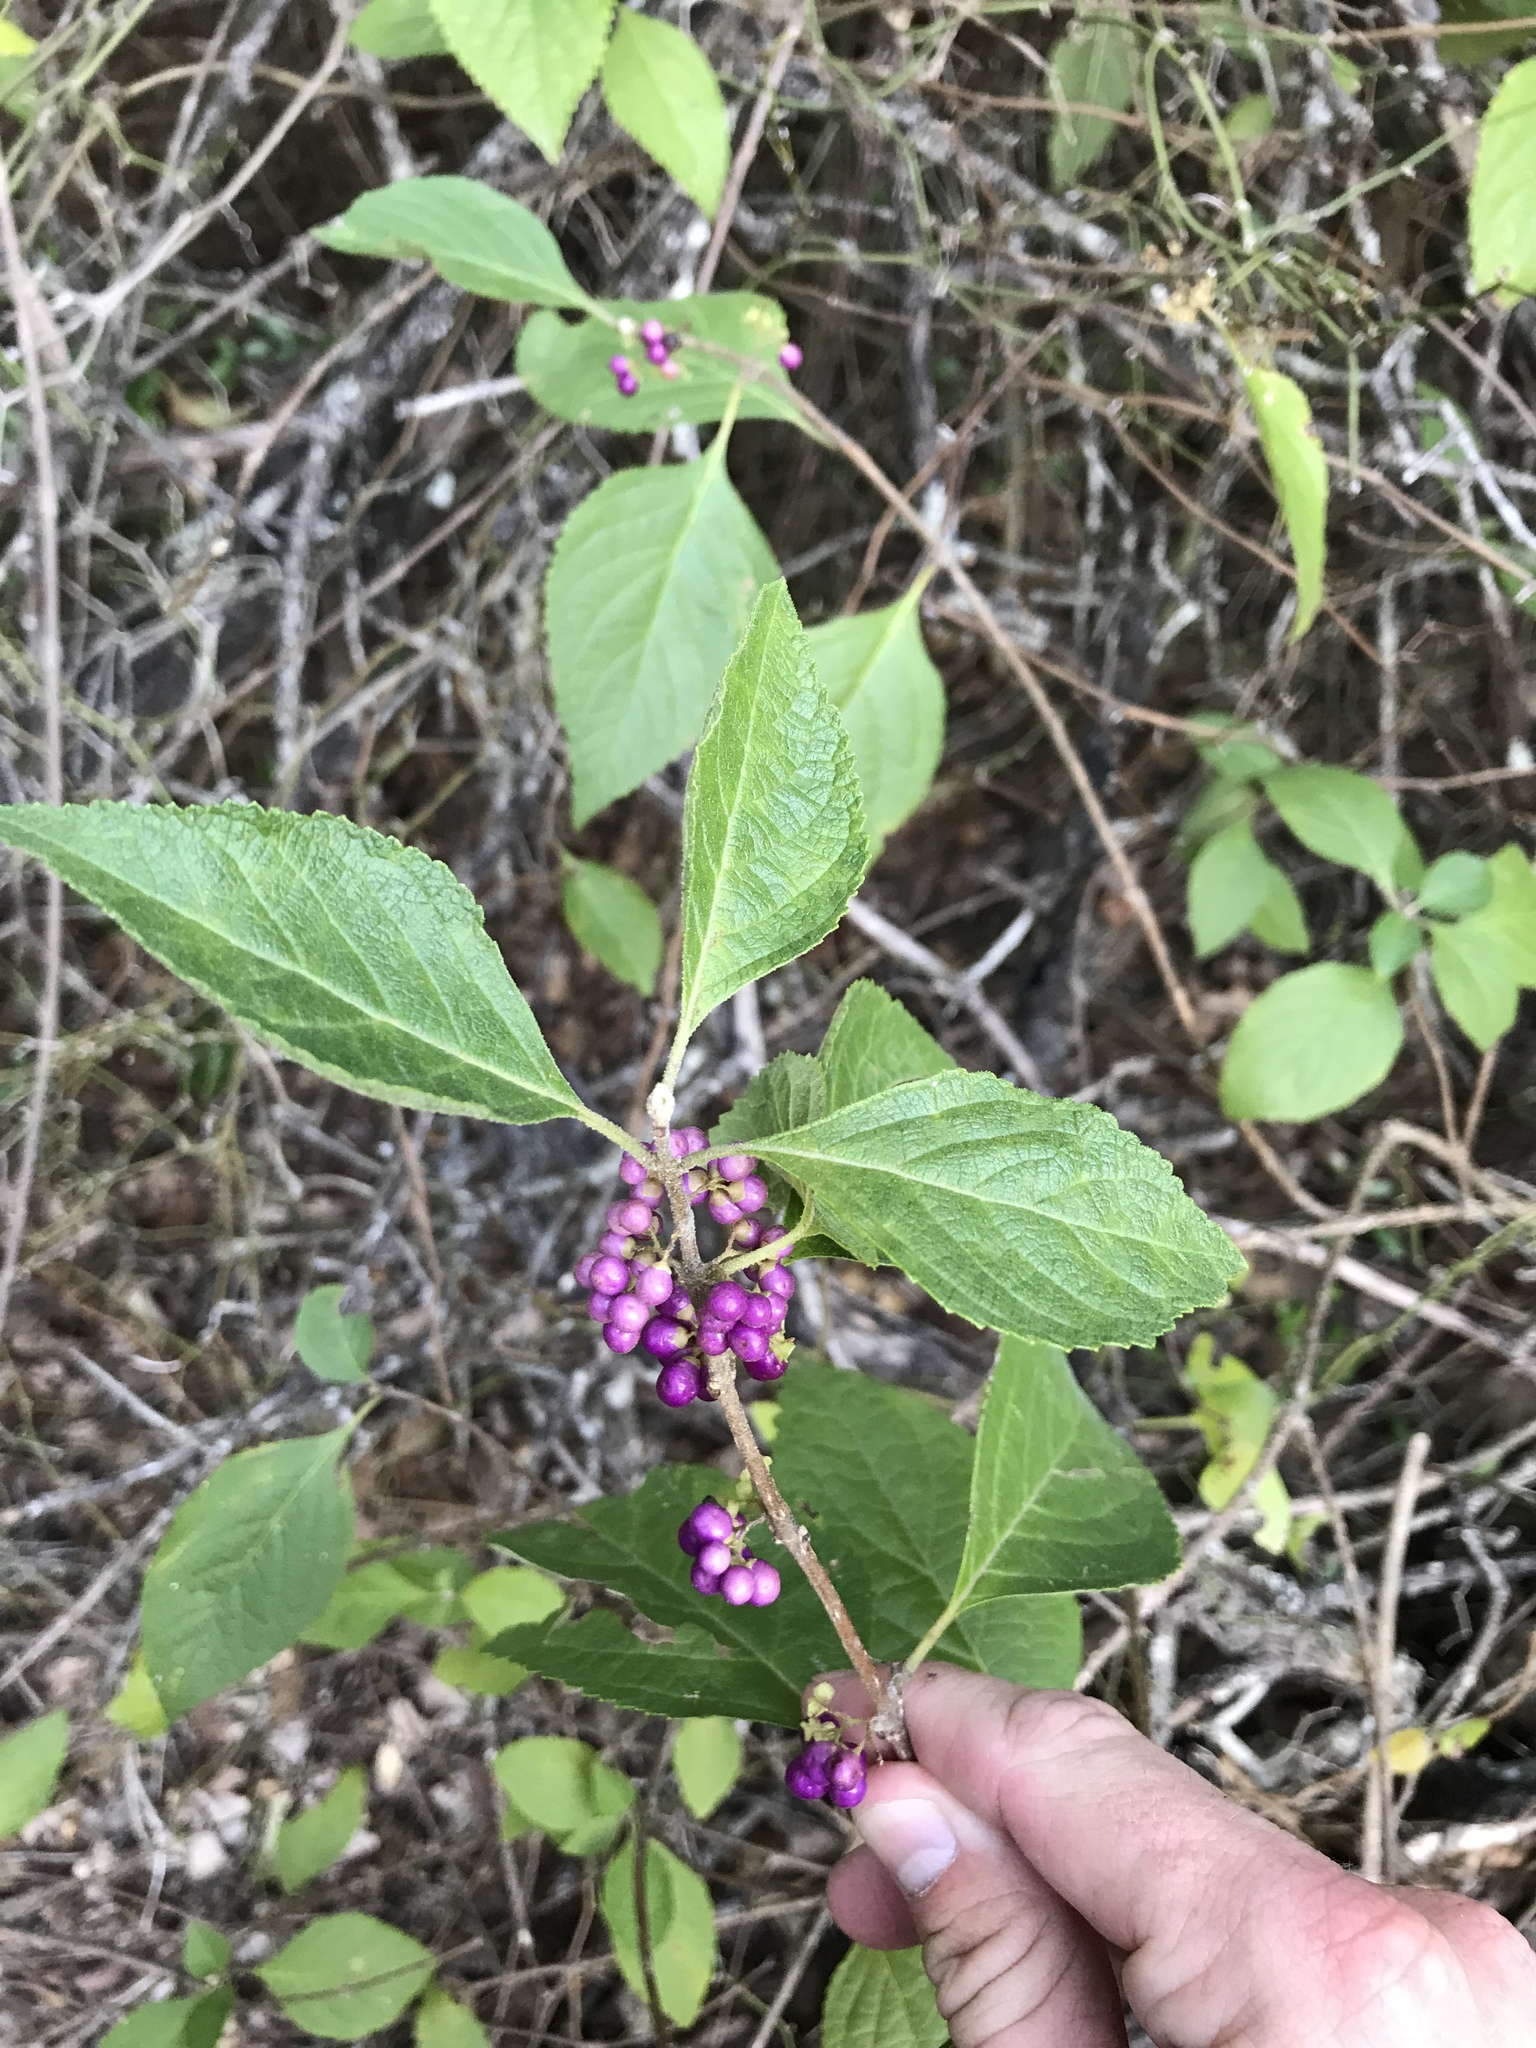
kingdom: Plantae
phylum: Tracheophyta
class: Magnoliopsida
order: Lamiales
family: Lamiaceae
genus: Callicarpa
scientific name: Callicarpa americana
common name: American beautyberry
